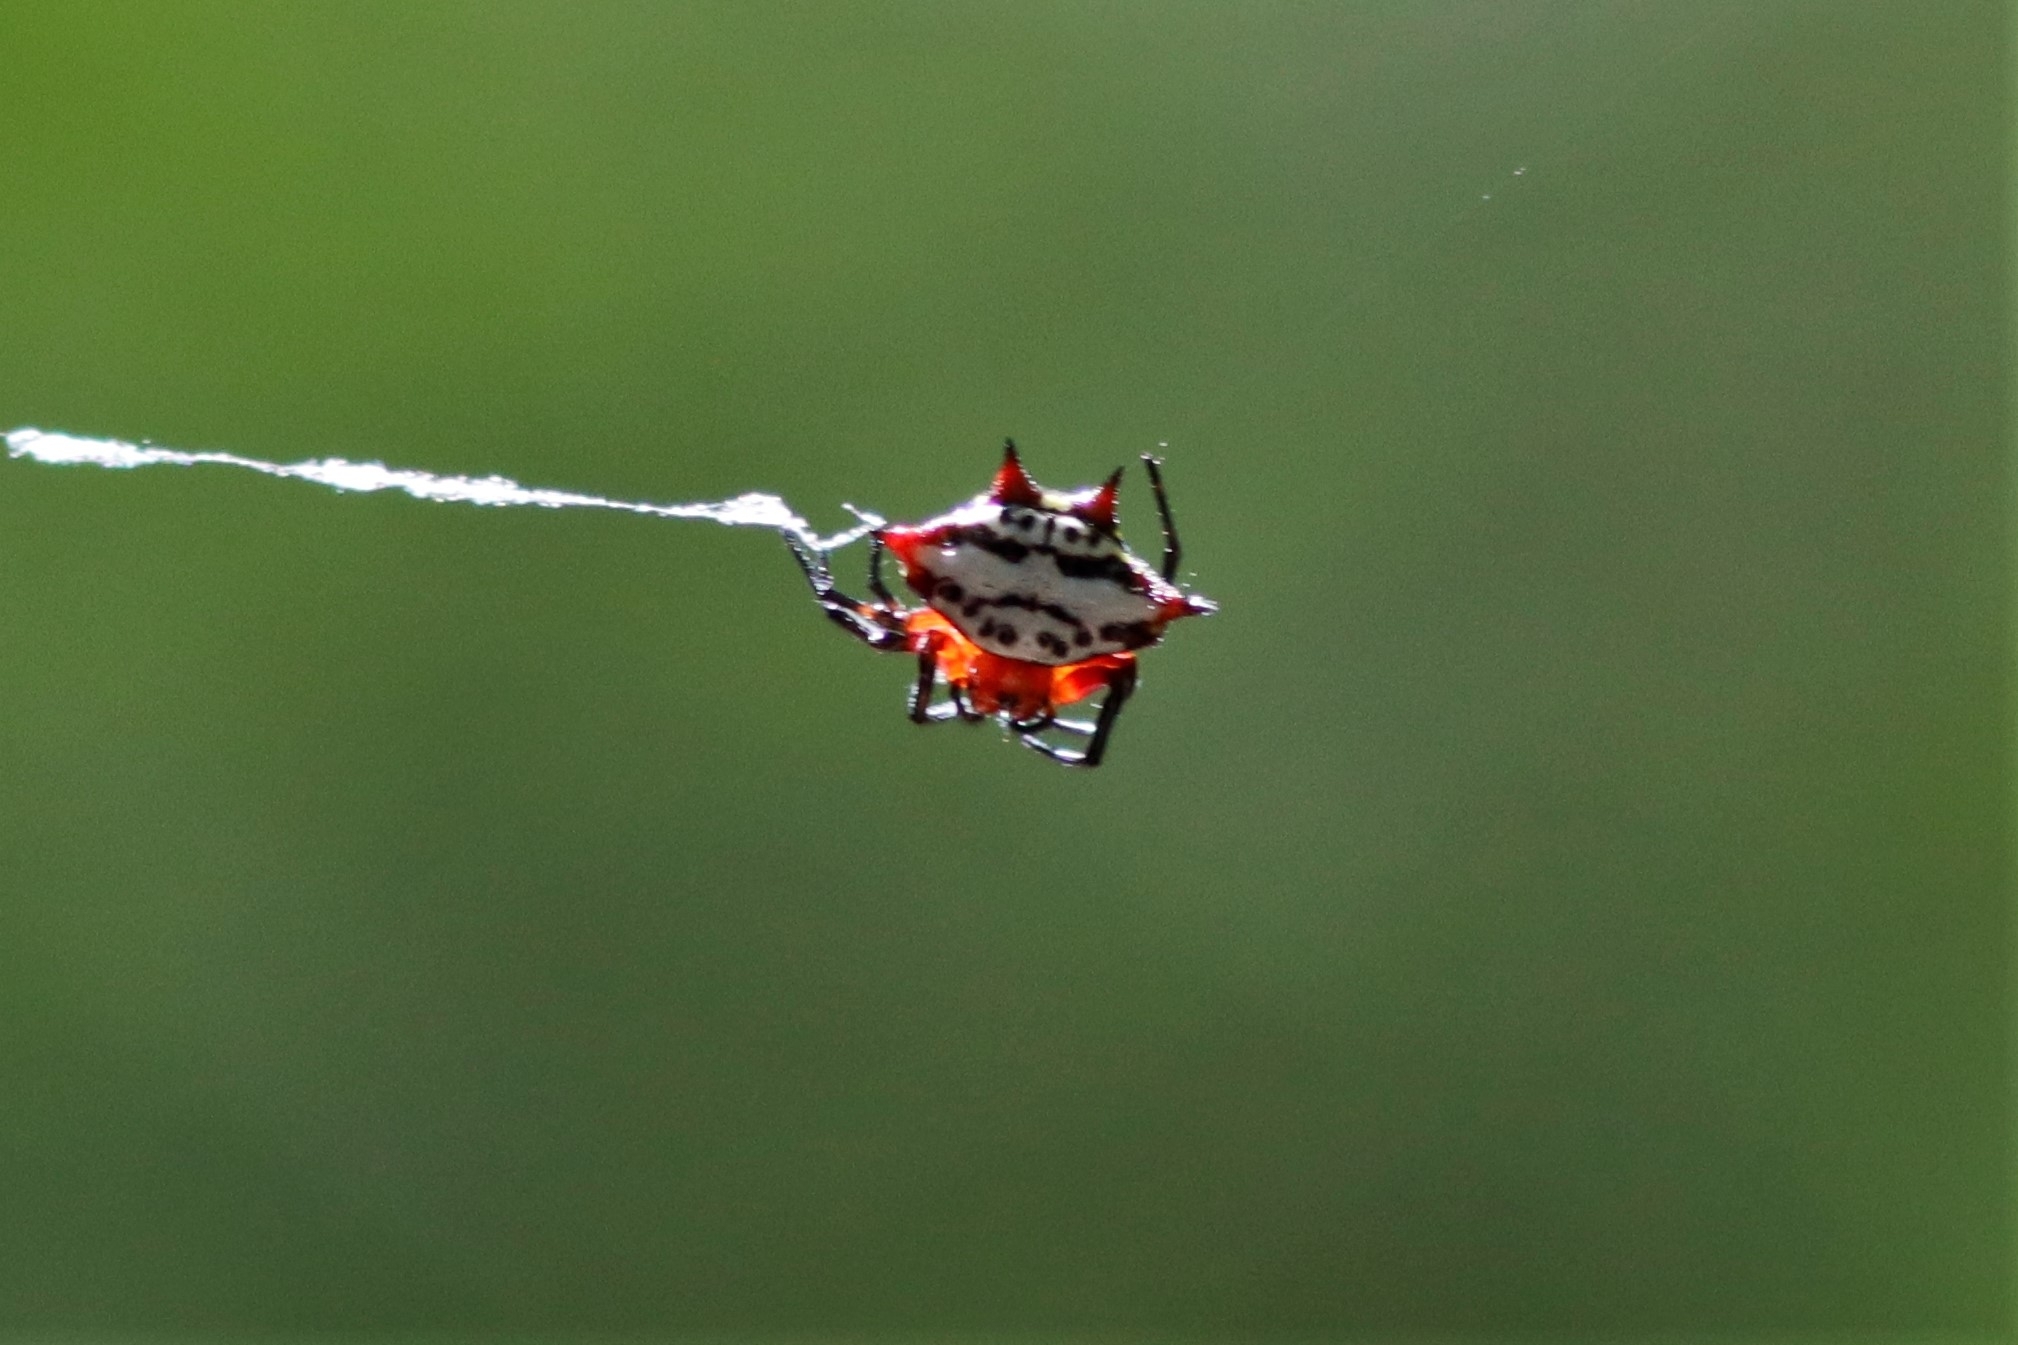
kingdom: Animalia
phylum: Arthropoda
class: Arachnida
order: Araneae
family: Araneidae
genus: Gasteracantha
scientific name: Gasteracantha sanguinolenta
